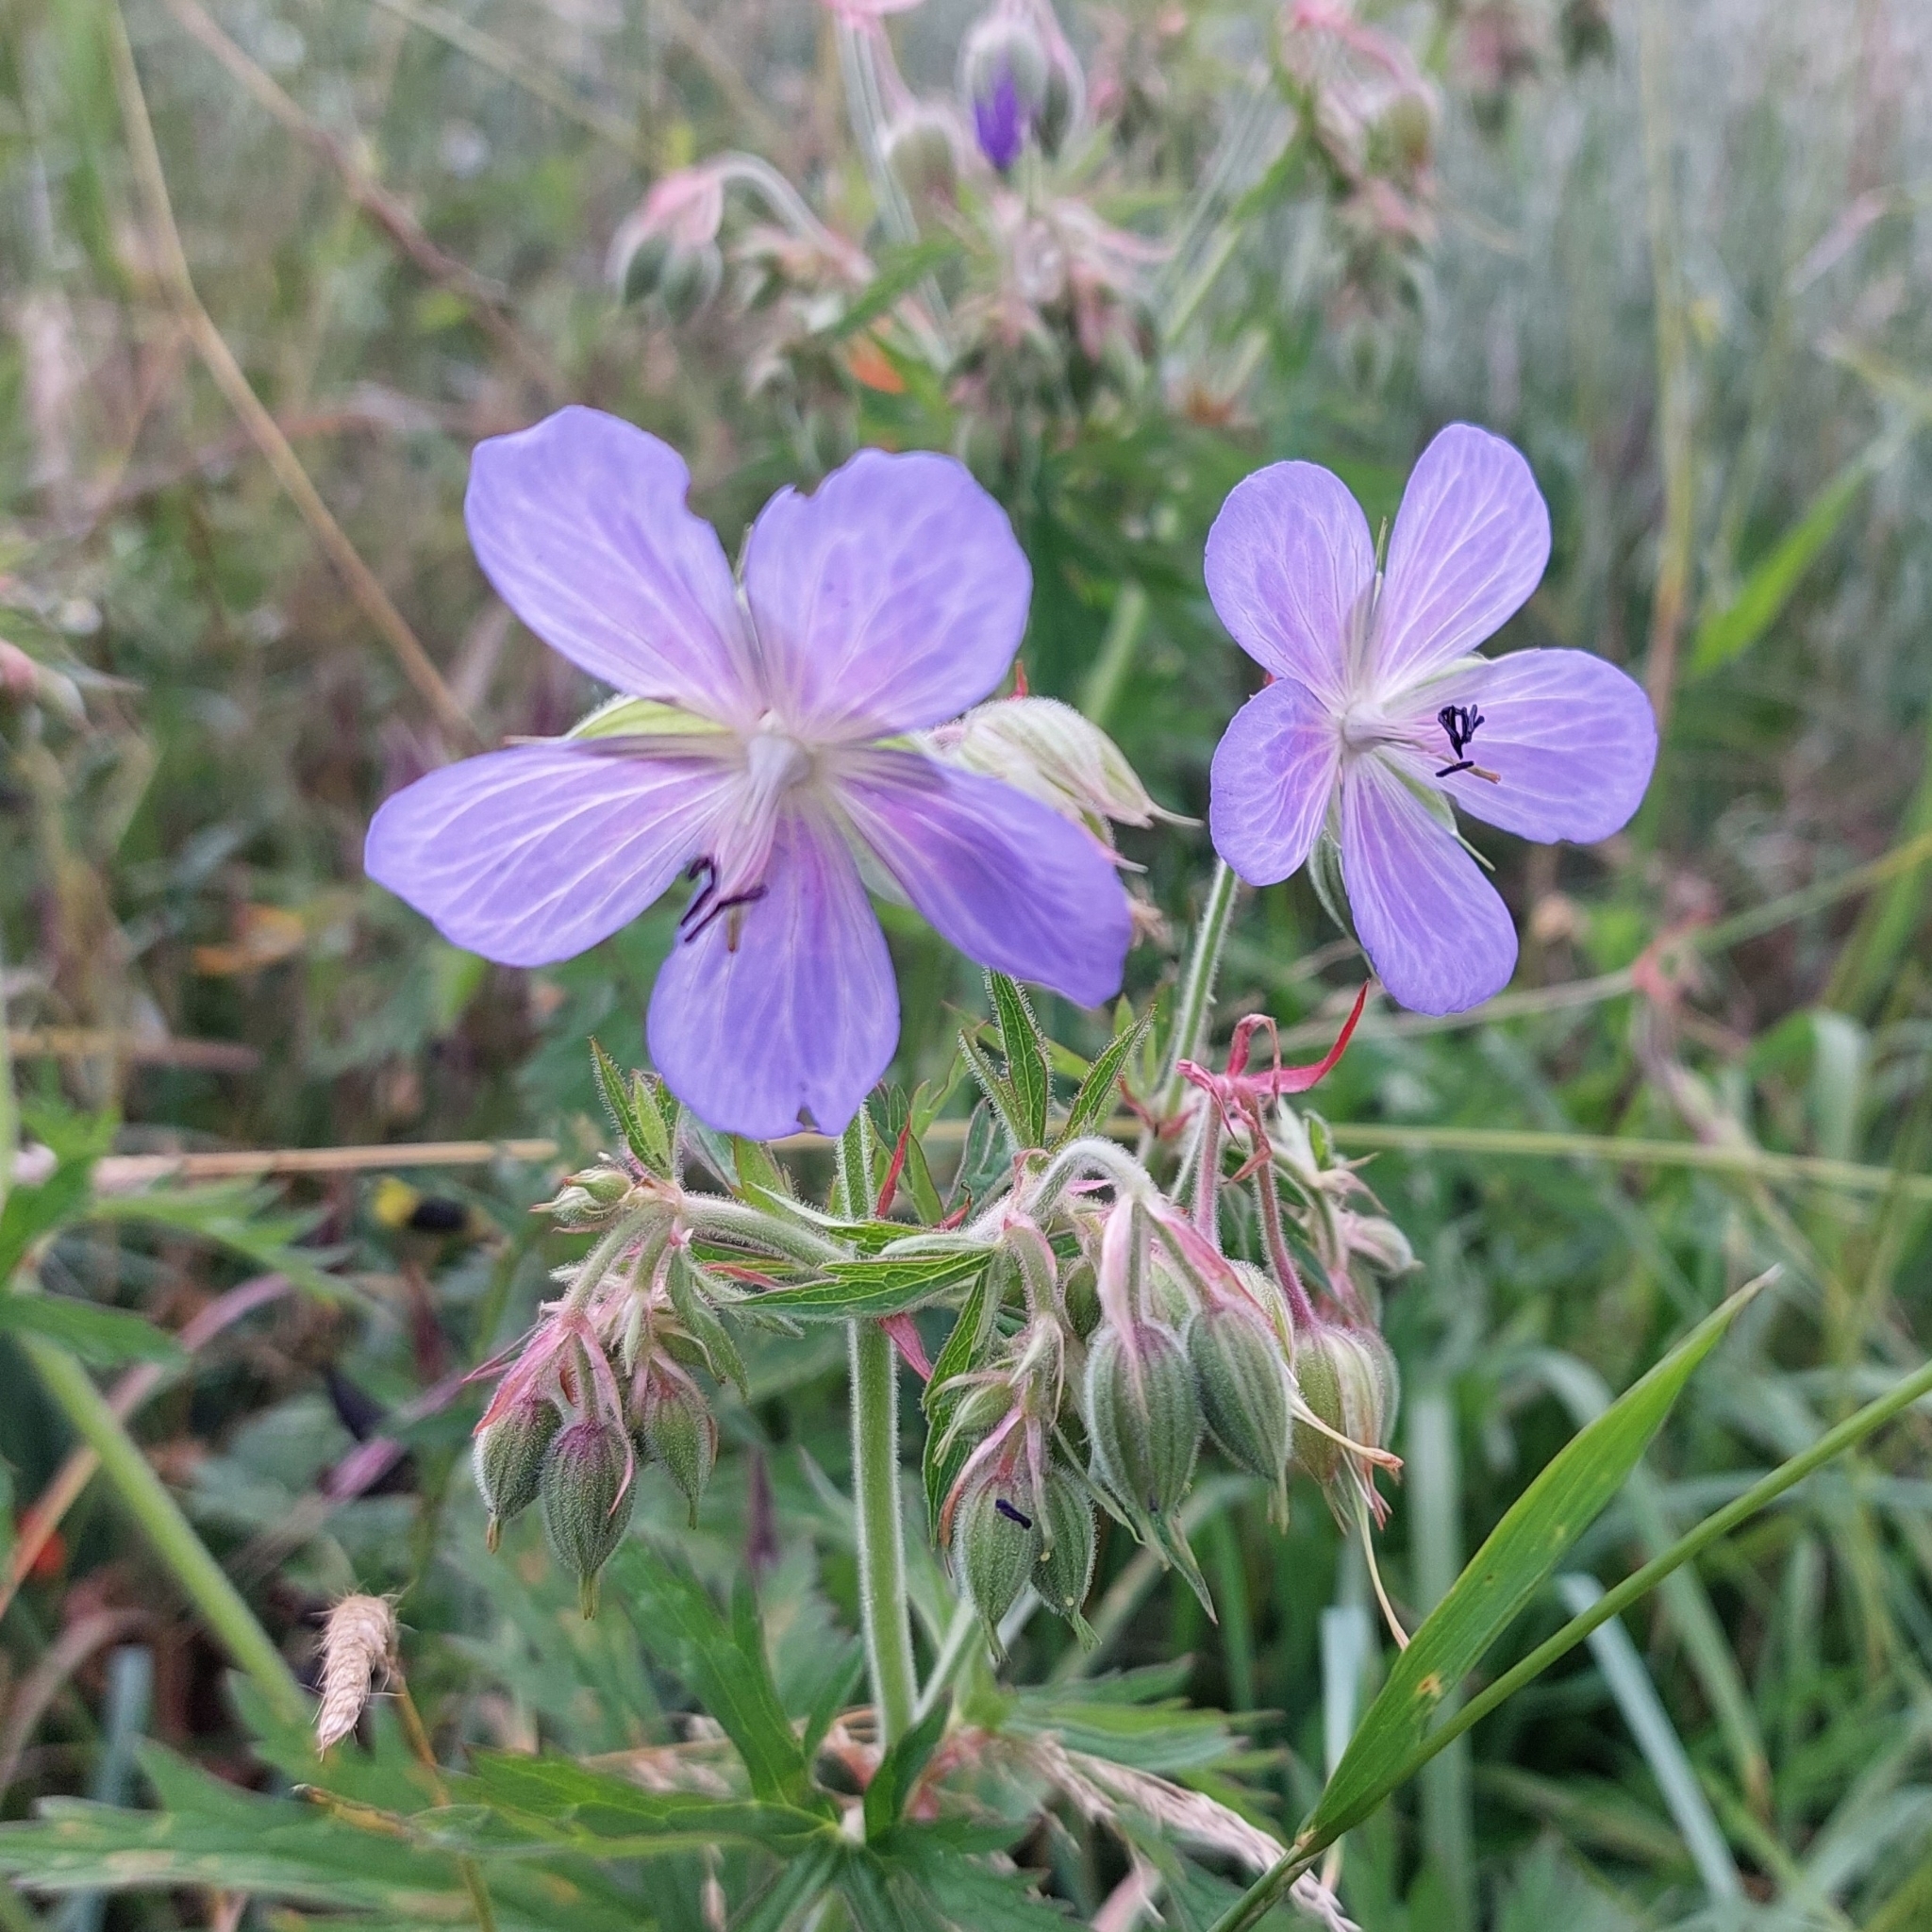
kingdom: Plantae
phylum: Tracheophyta
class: Magnoliopsida
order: Geraniales
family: Geraniaceae
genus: Geranium
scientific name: Geranium pratense
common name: Meadow crane's-bill
